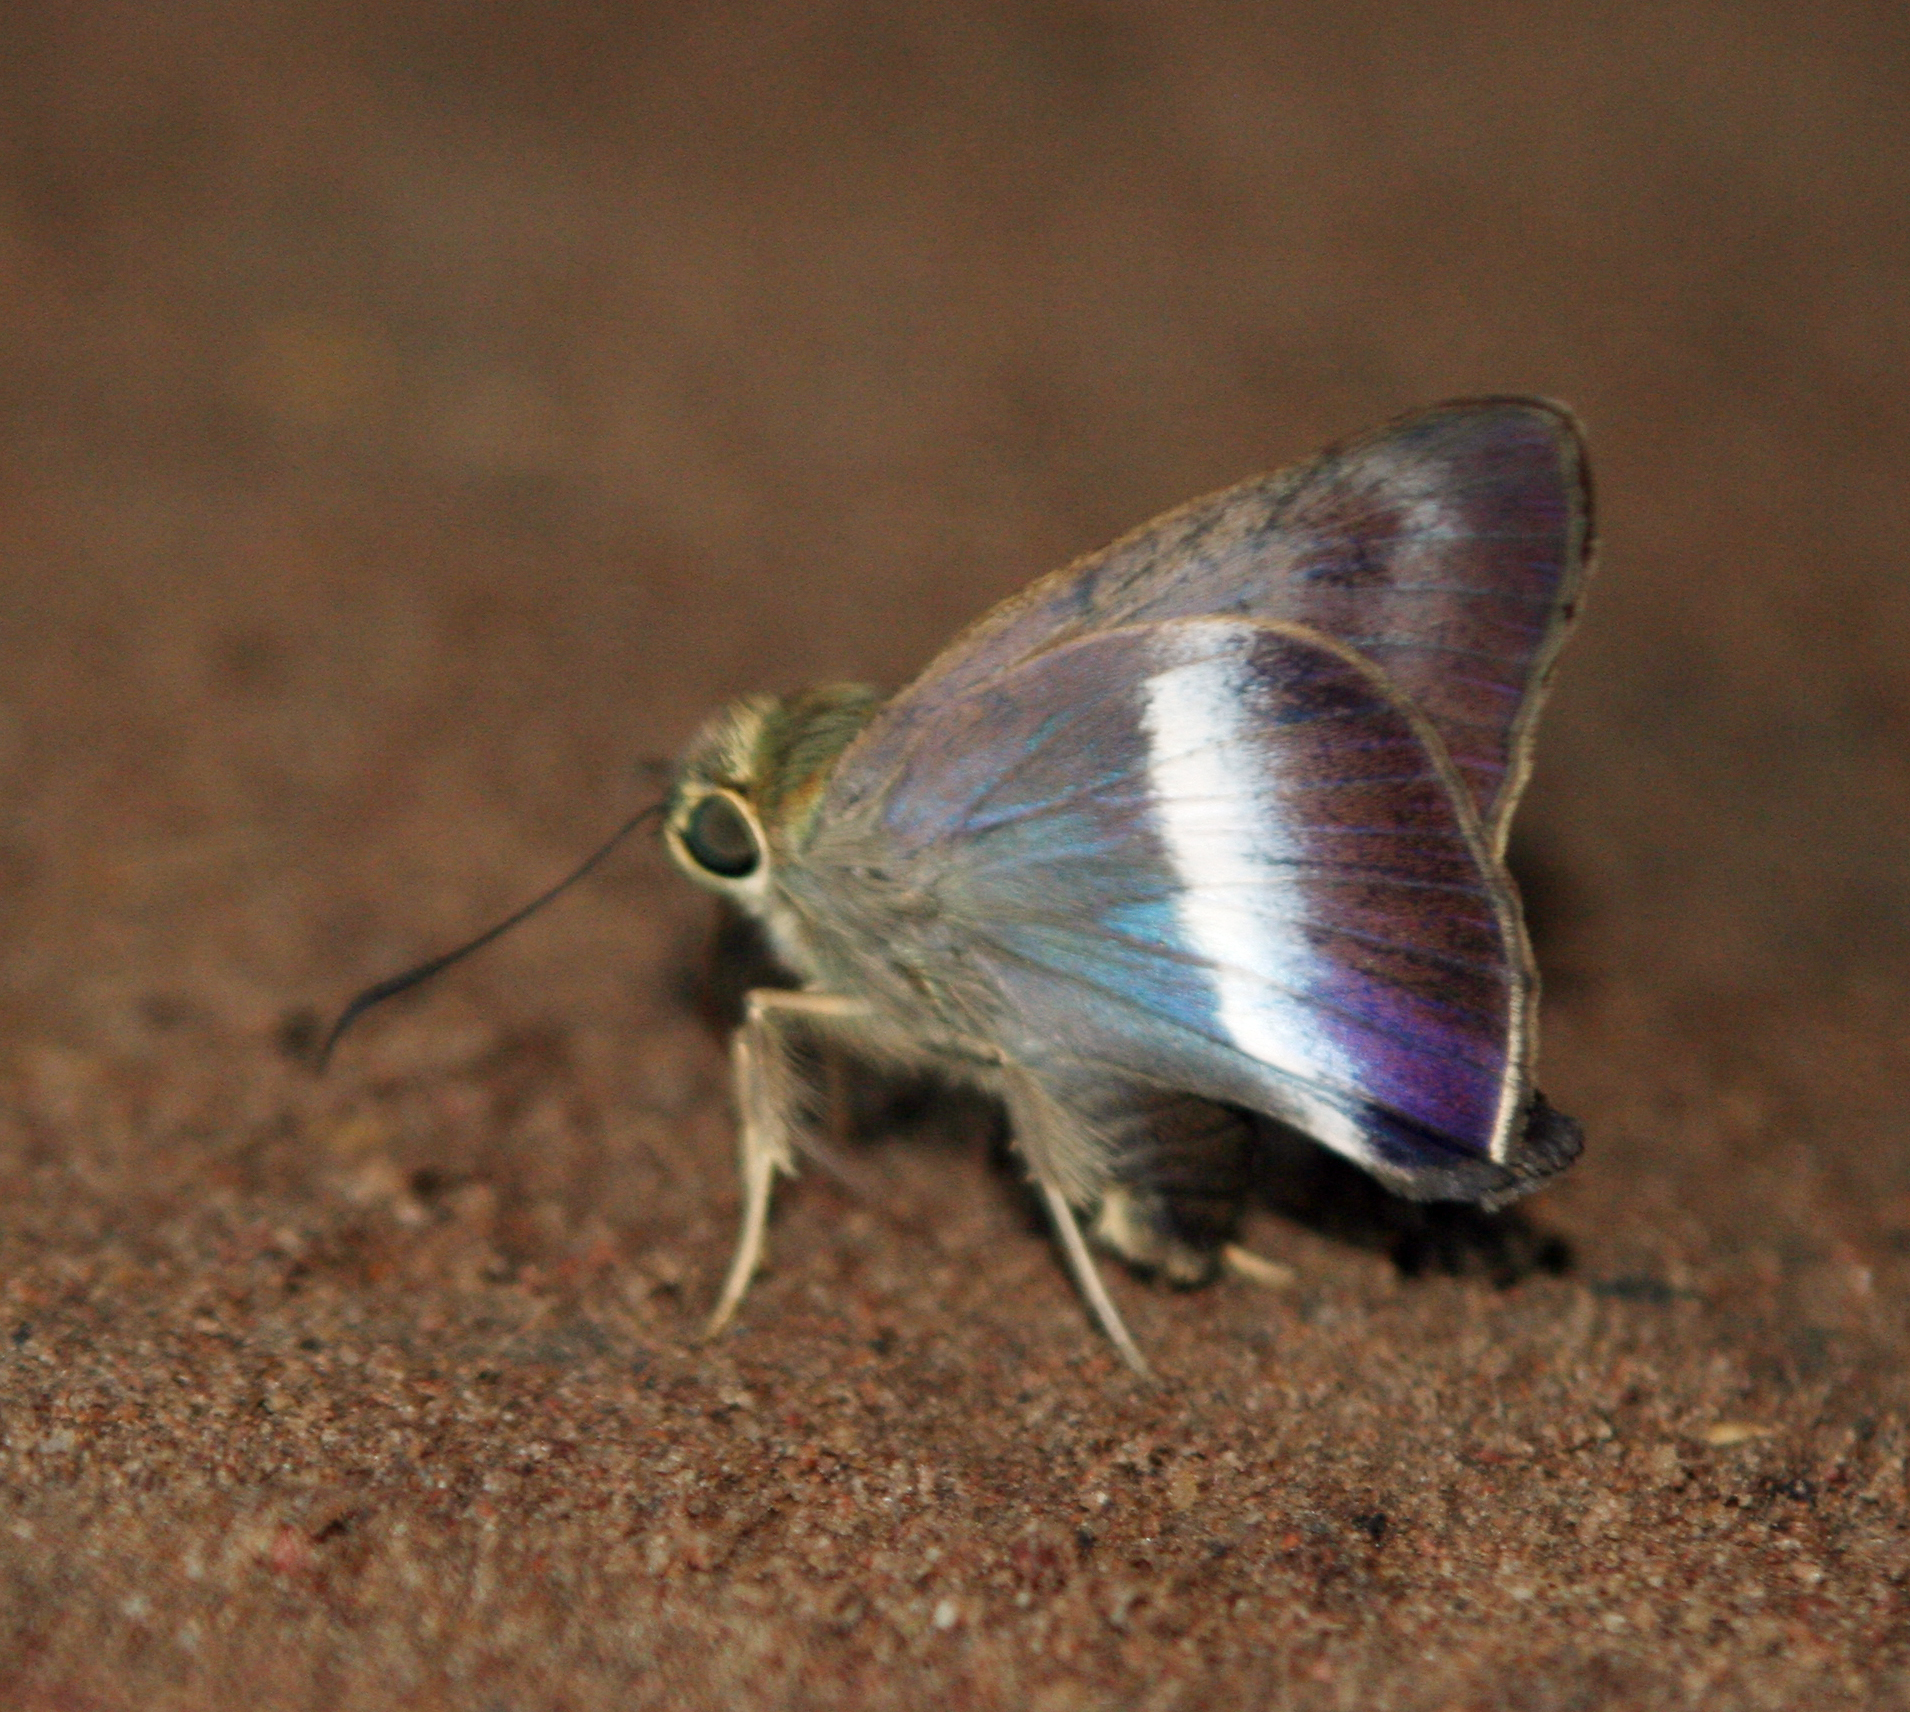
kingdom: Animalia
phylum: Arthropoda
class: Insecta
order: Lepidoptera
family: Hesperiidae
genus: Hasora
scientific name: Hasora proxissima
